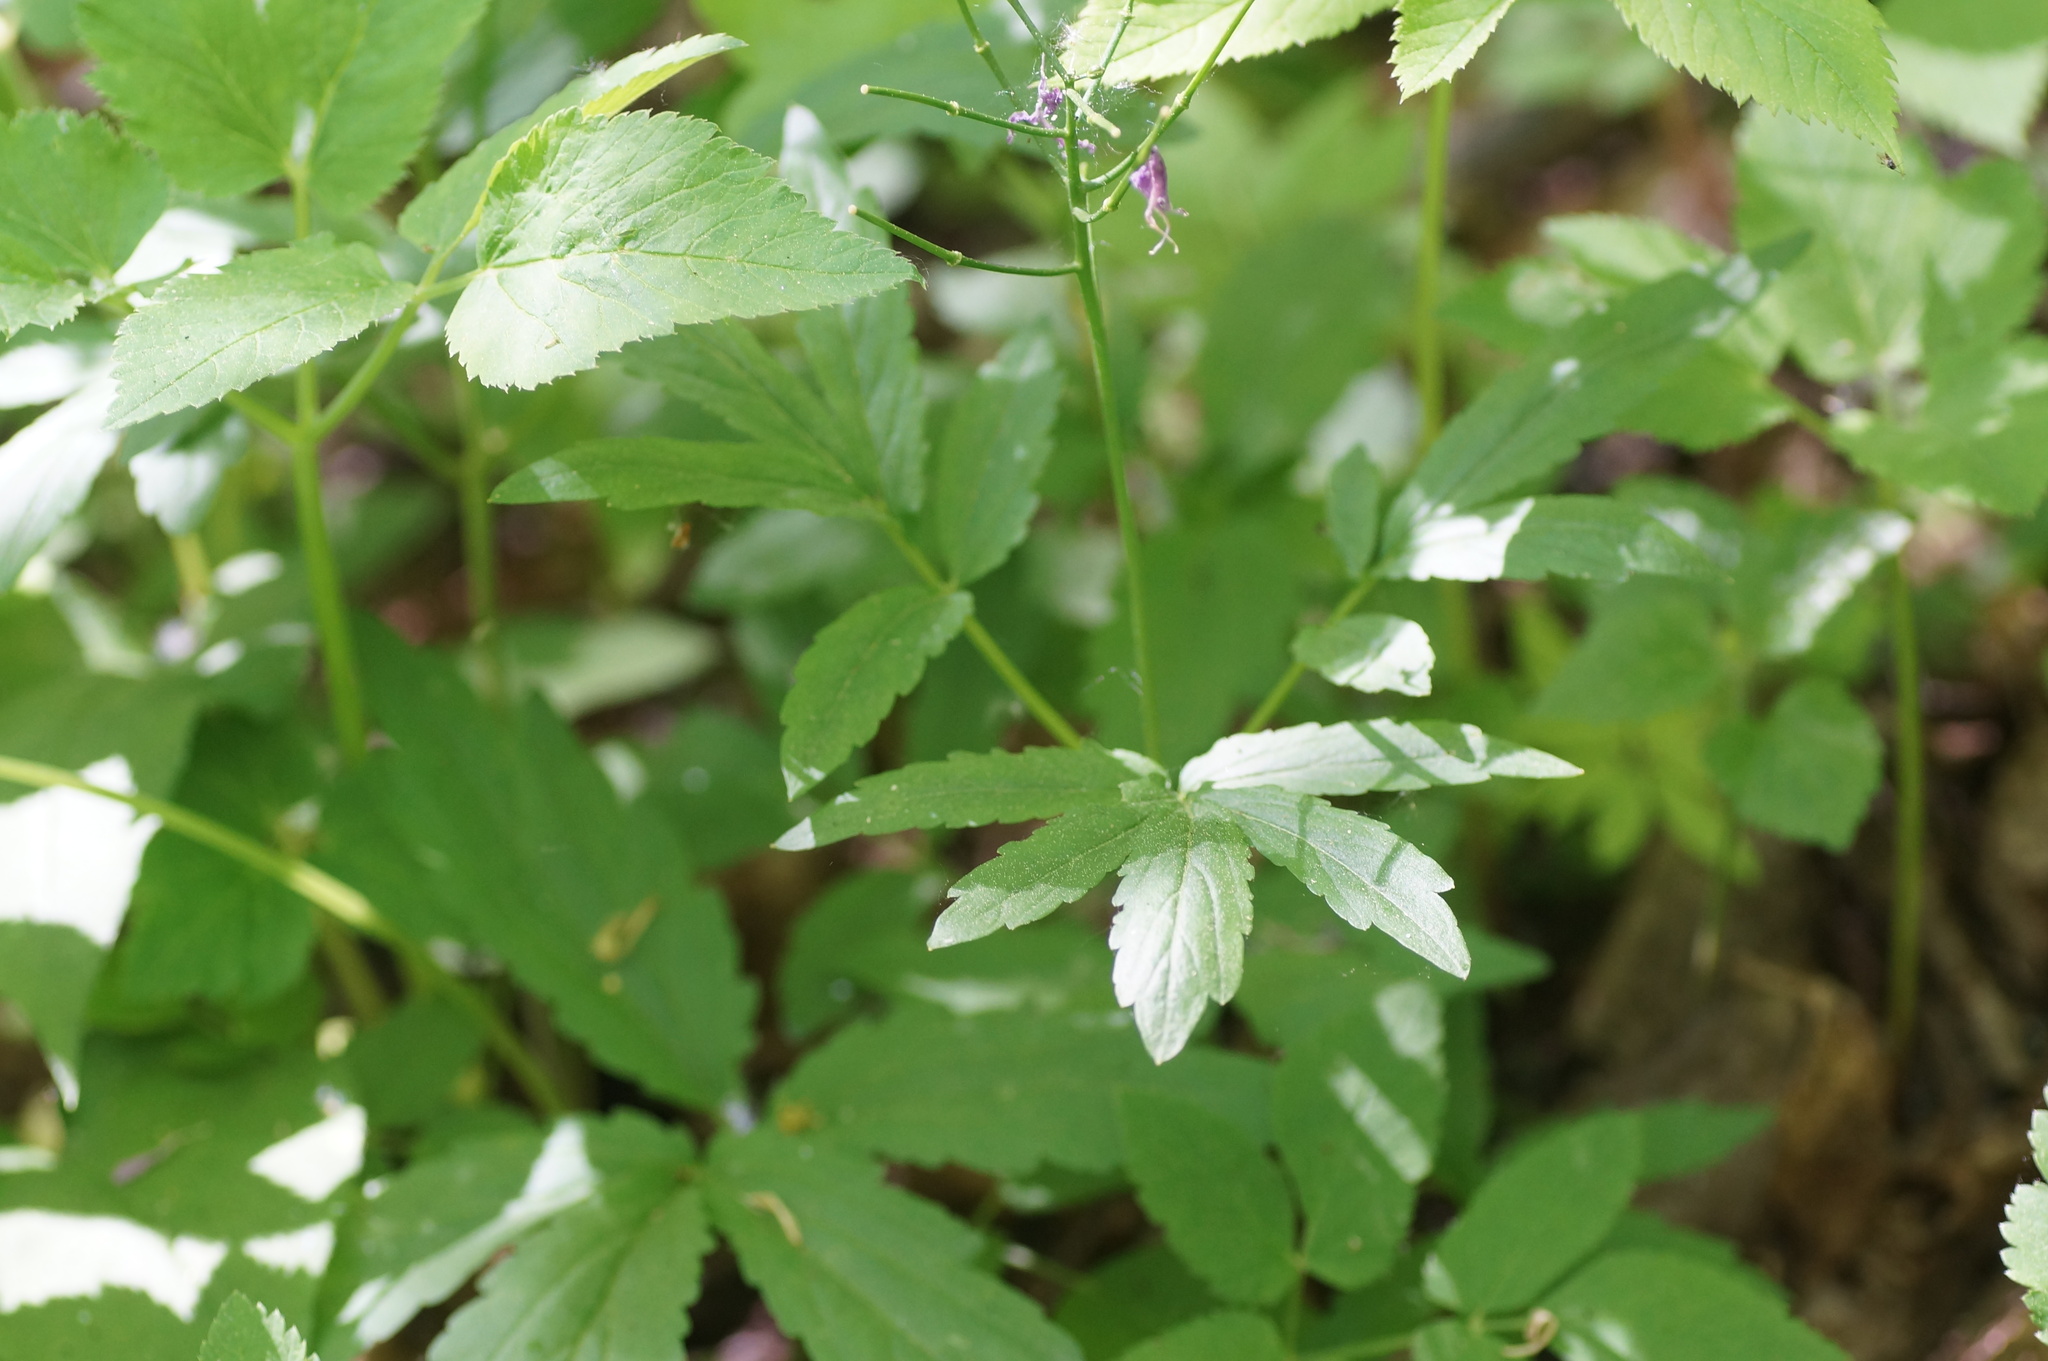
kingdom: Plantae
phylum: Tracheophyta
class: Magnoliopsida
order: Brassicales
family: Brassicaceae
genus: Cardamine
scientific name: Cardamine quinquefolia
